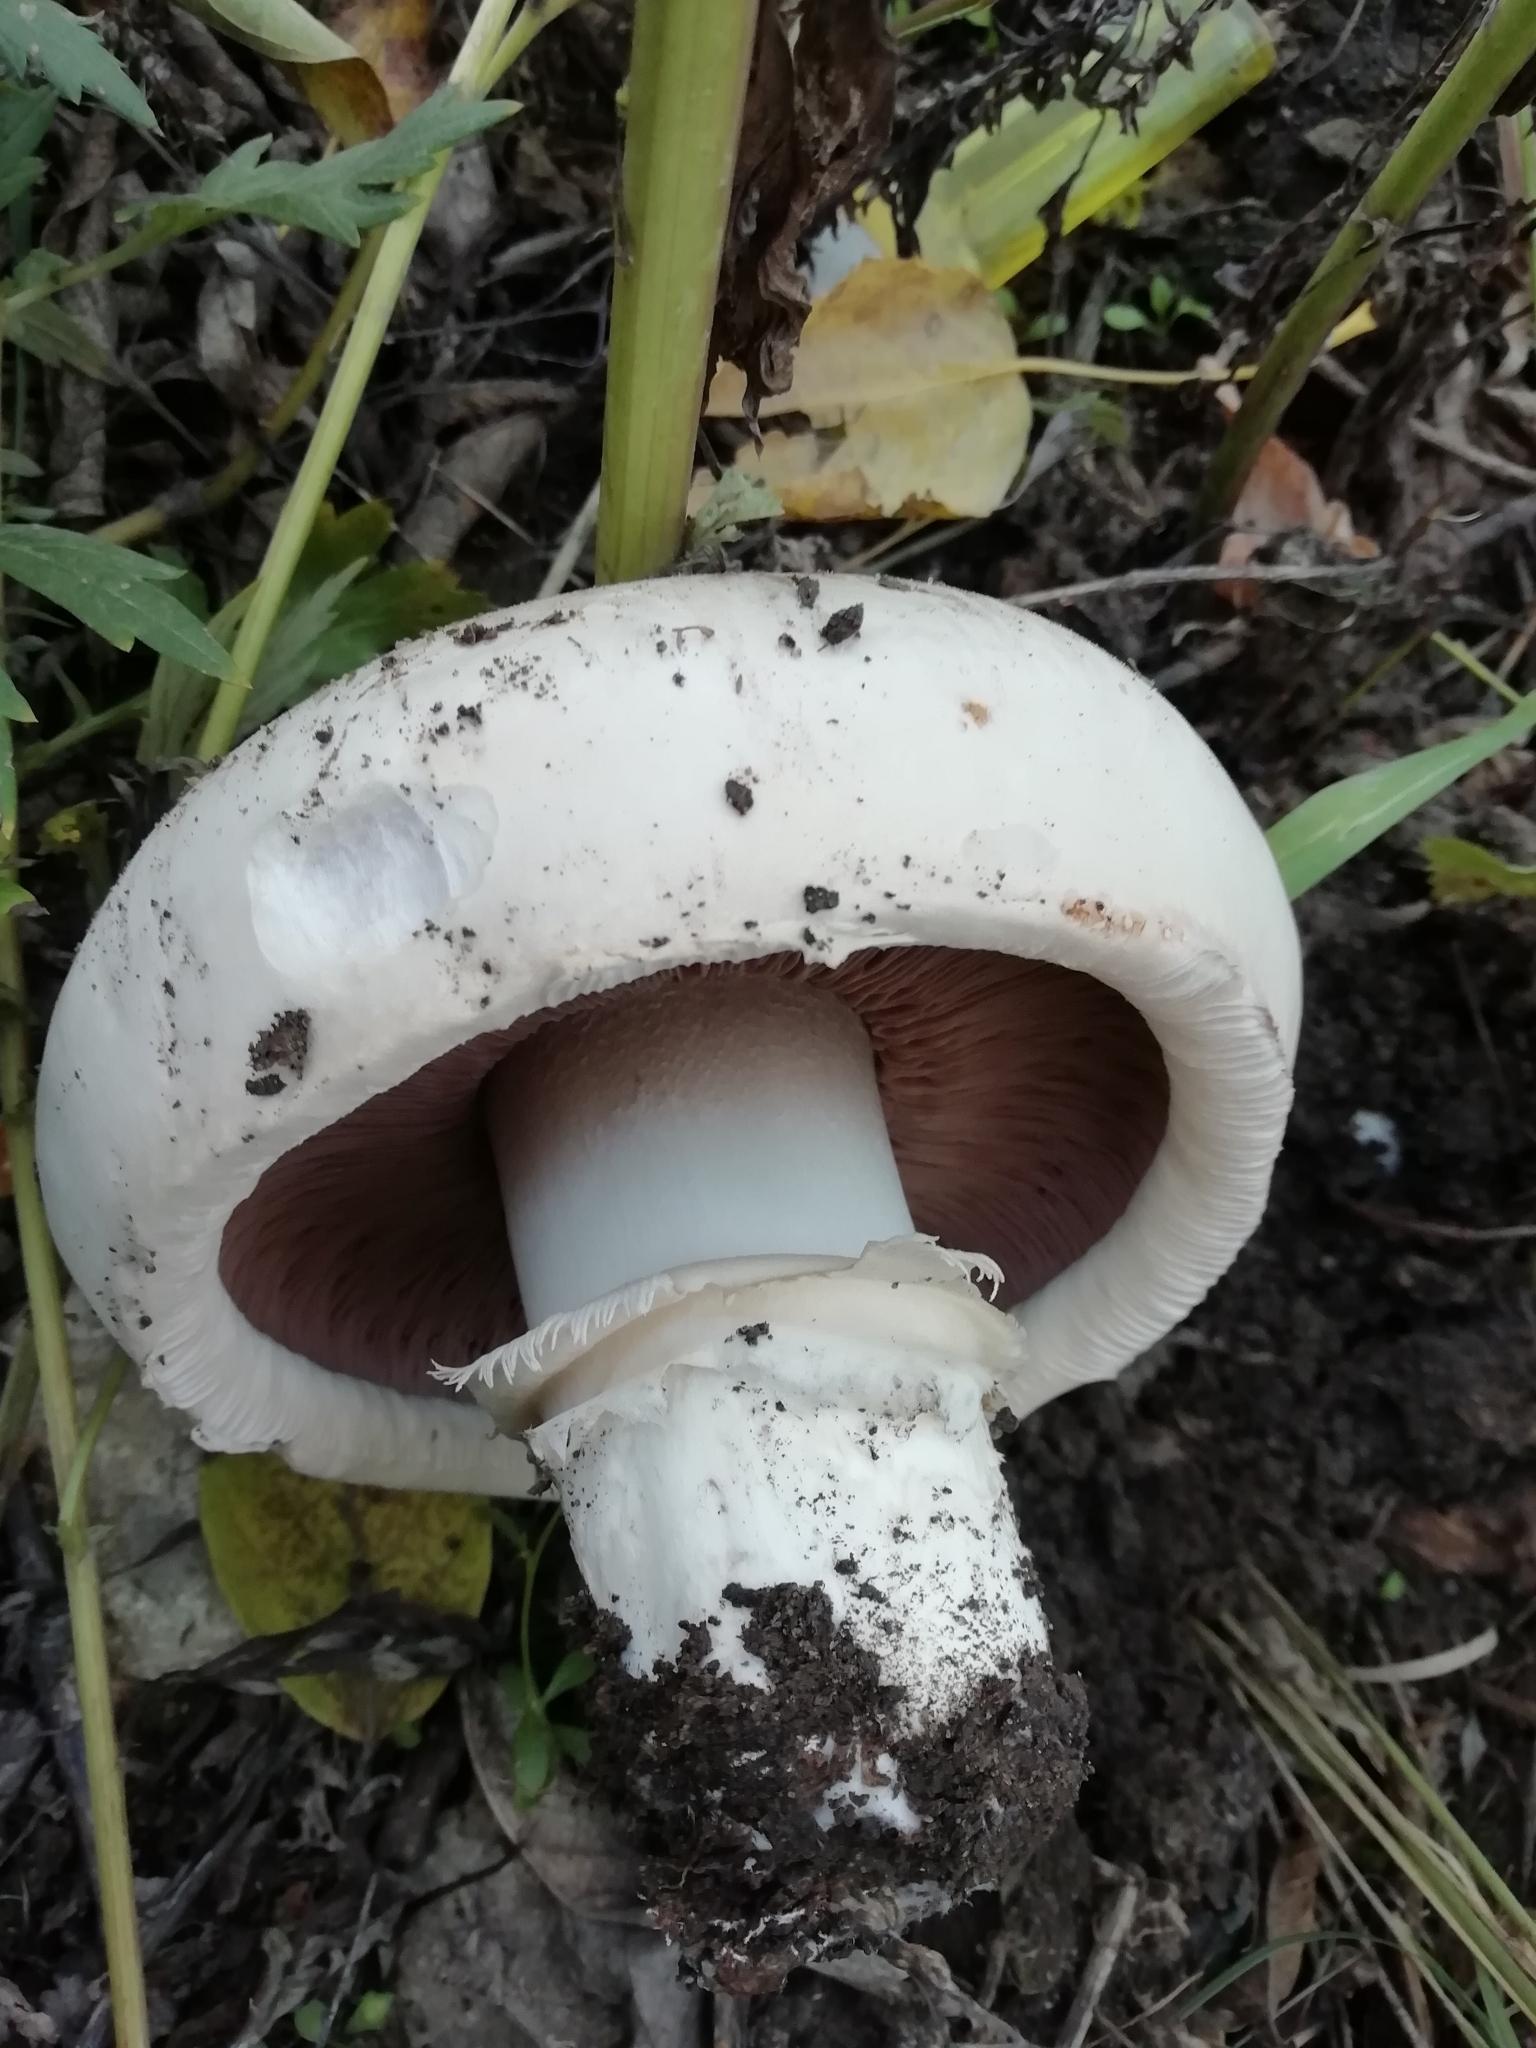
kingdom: Fungi
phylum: Basidiomycota
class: Agaricomycetes
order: Agaricales
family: Agaricaceae
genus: Agaricus
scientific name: Agaricus bitorquis
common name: Pavement mushroom
